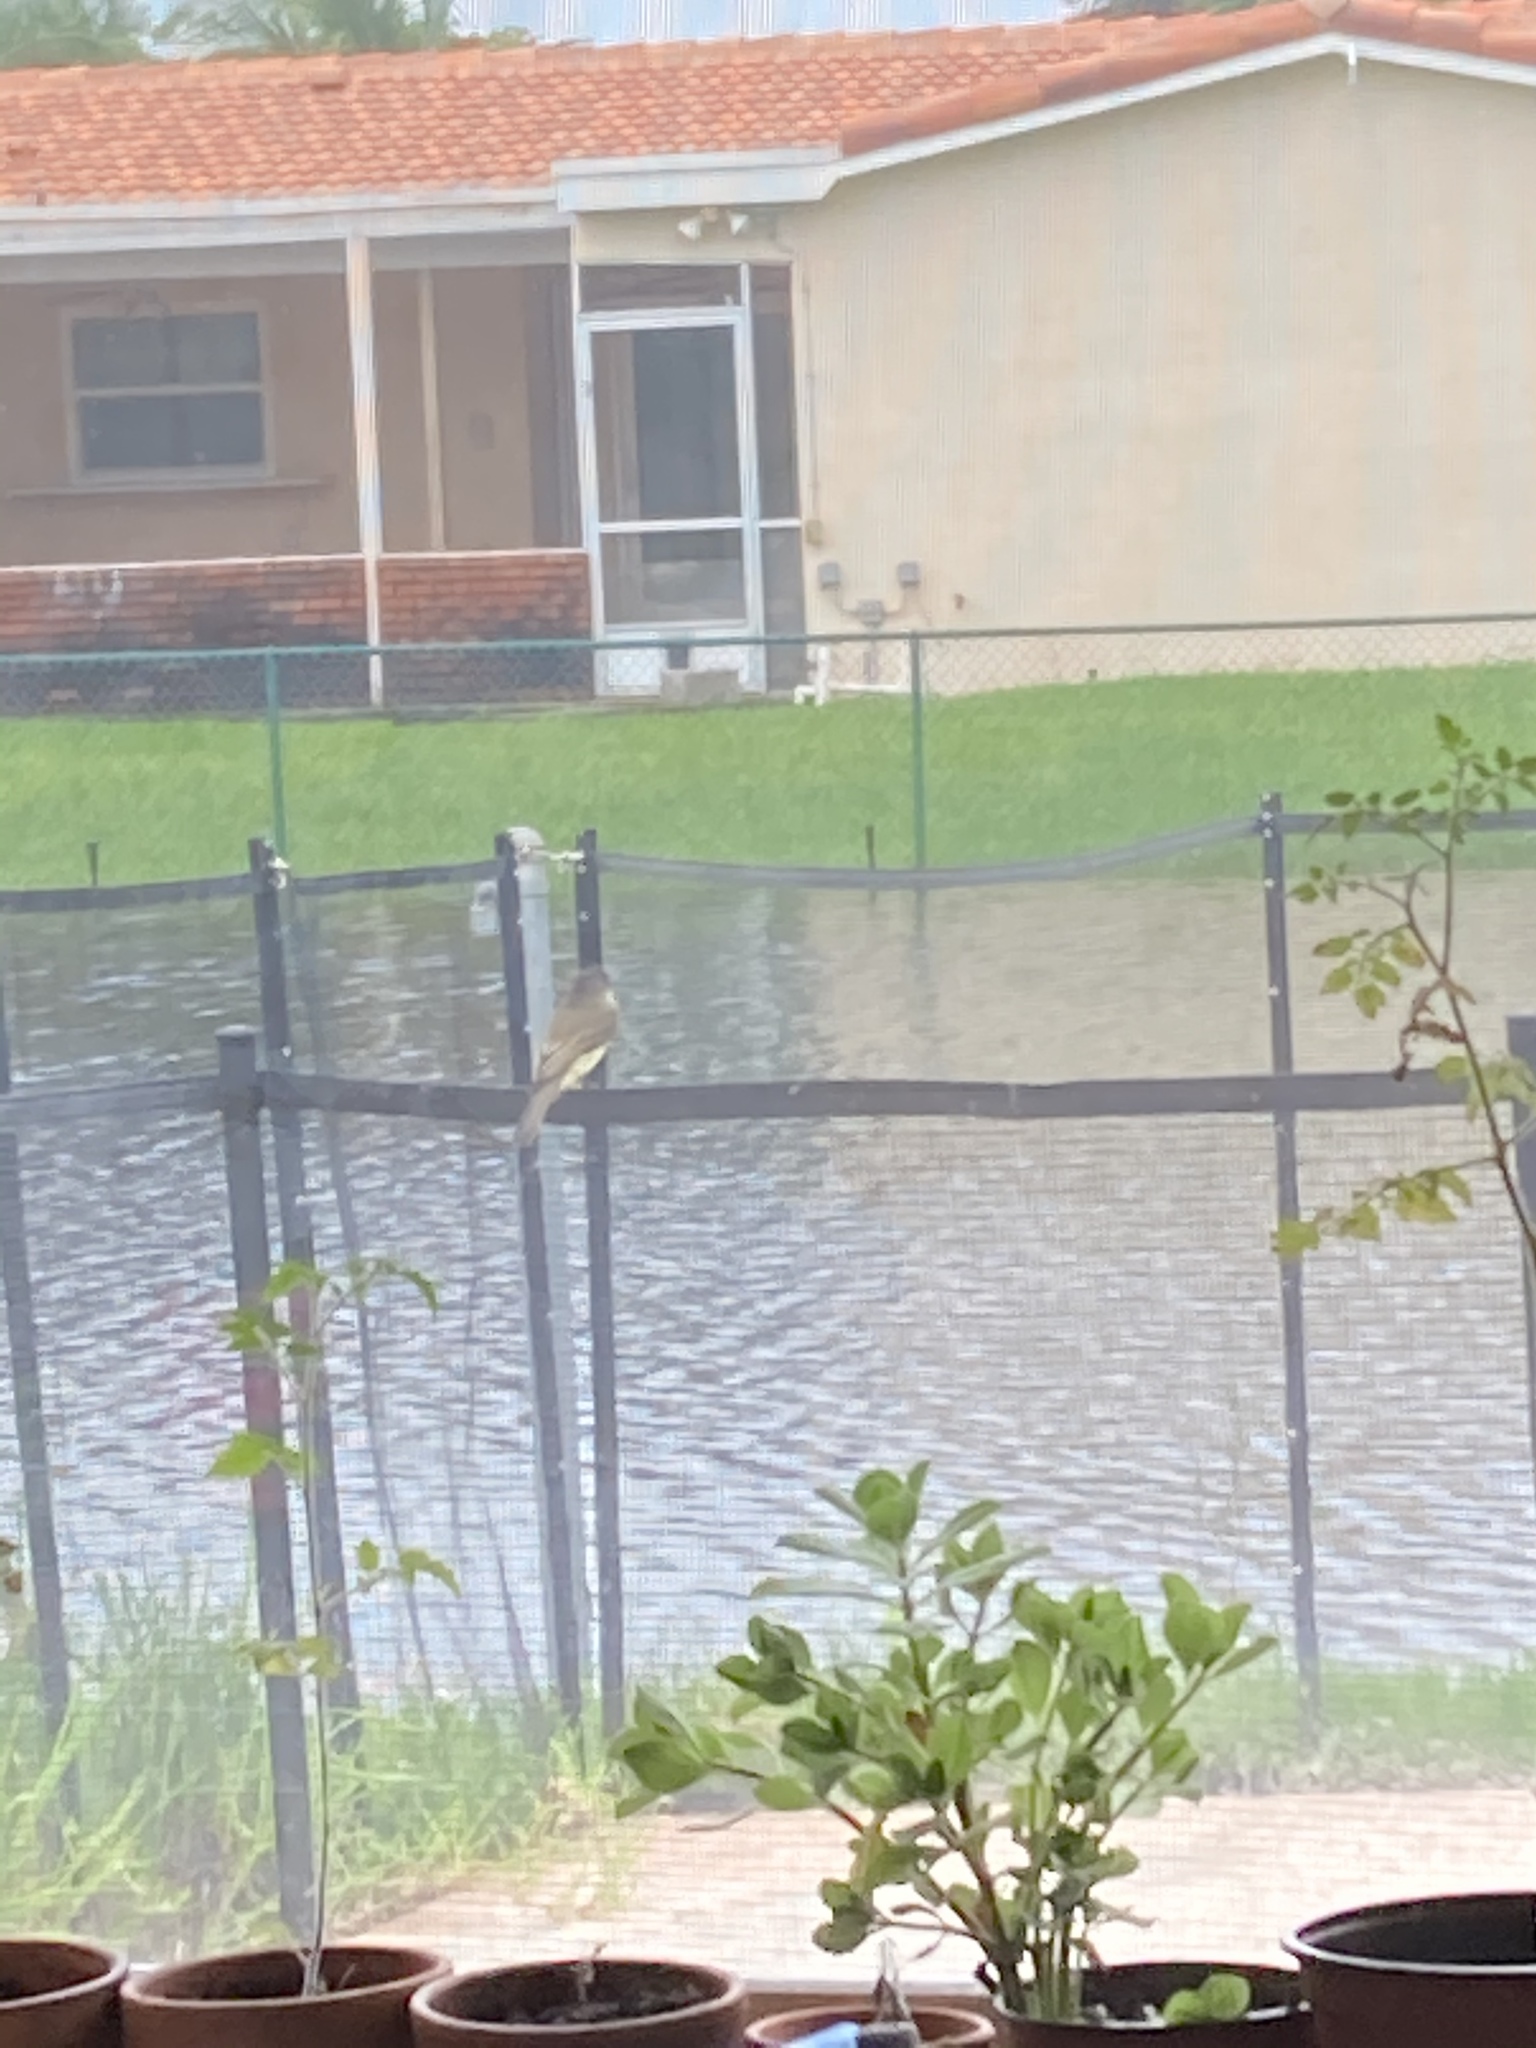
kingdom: Animalia
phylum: Chordata
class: Aves
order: Passeriformes
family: Tyrannidae
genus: Sayornis
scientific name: Sayornis phoebe
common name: Eastern phoebe
